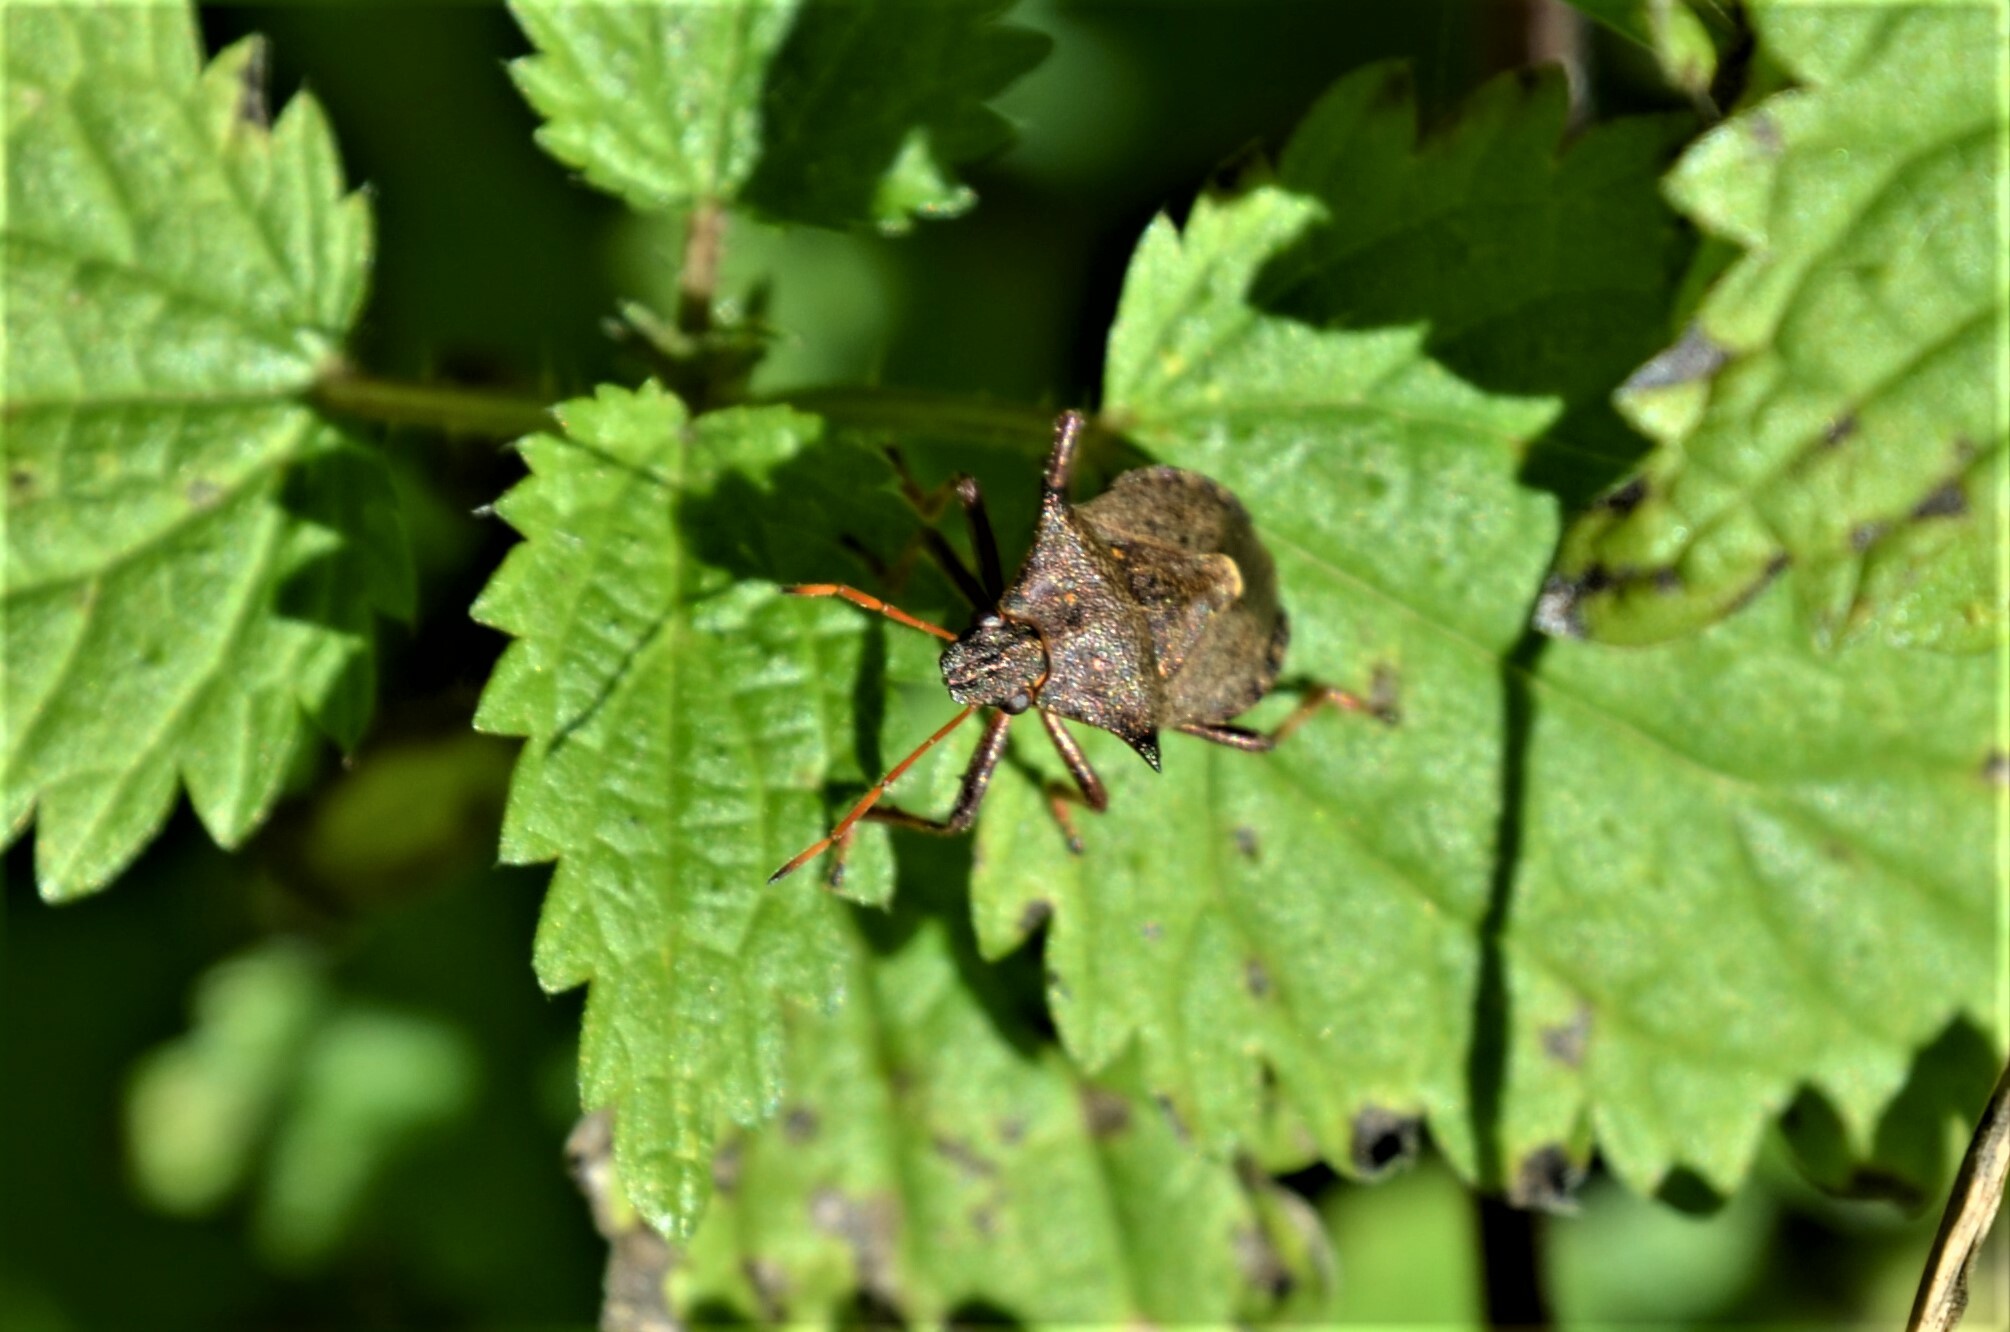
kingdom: Animalia
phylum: Arthropoda
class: Insecta
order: Hemiptera
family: Pentatomidae
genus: Picromerus
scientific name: Picromerus bidens
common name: Spiked shieldbug
